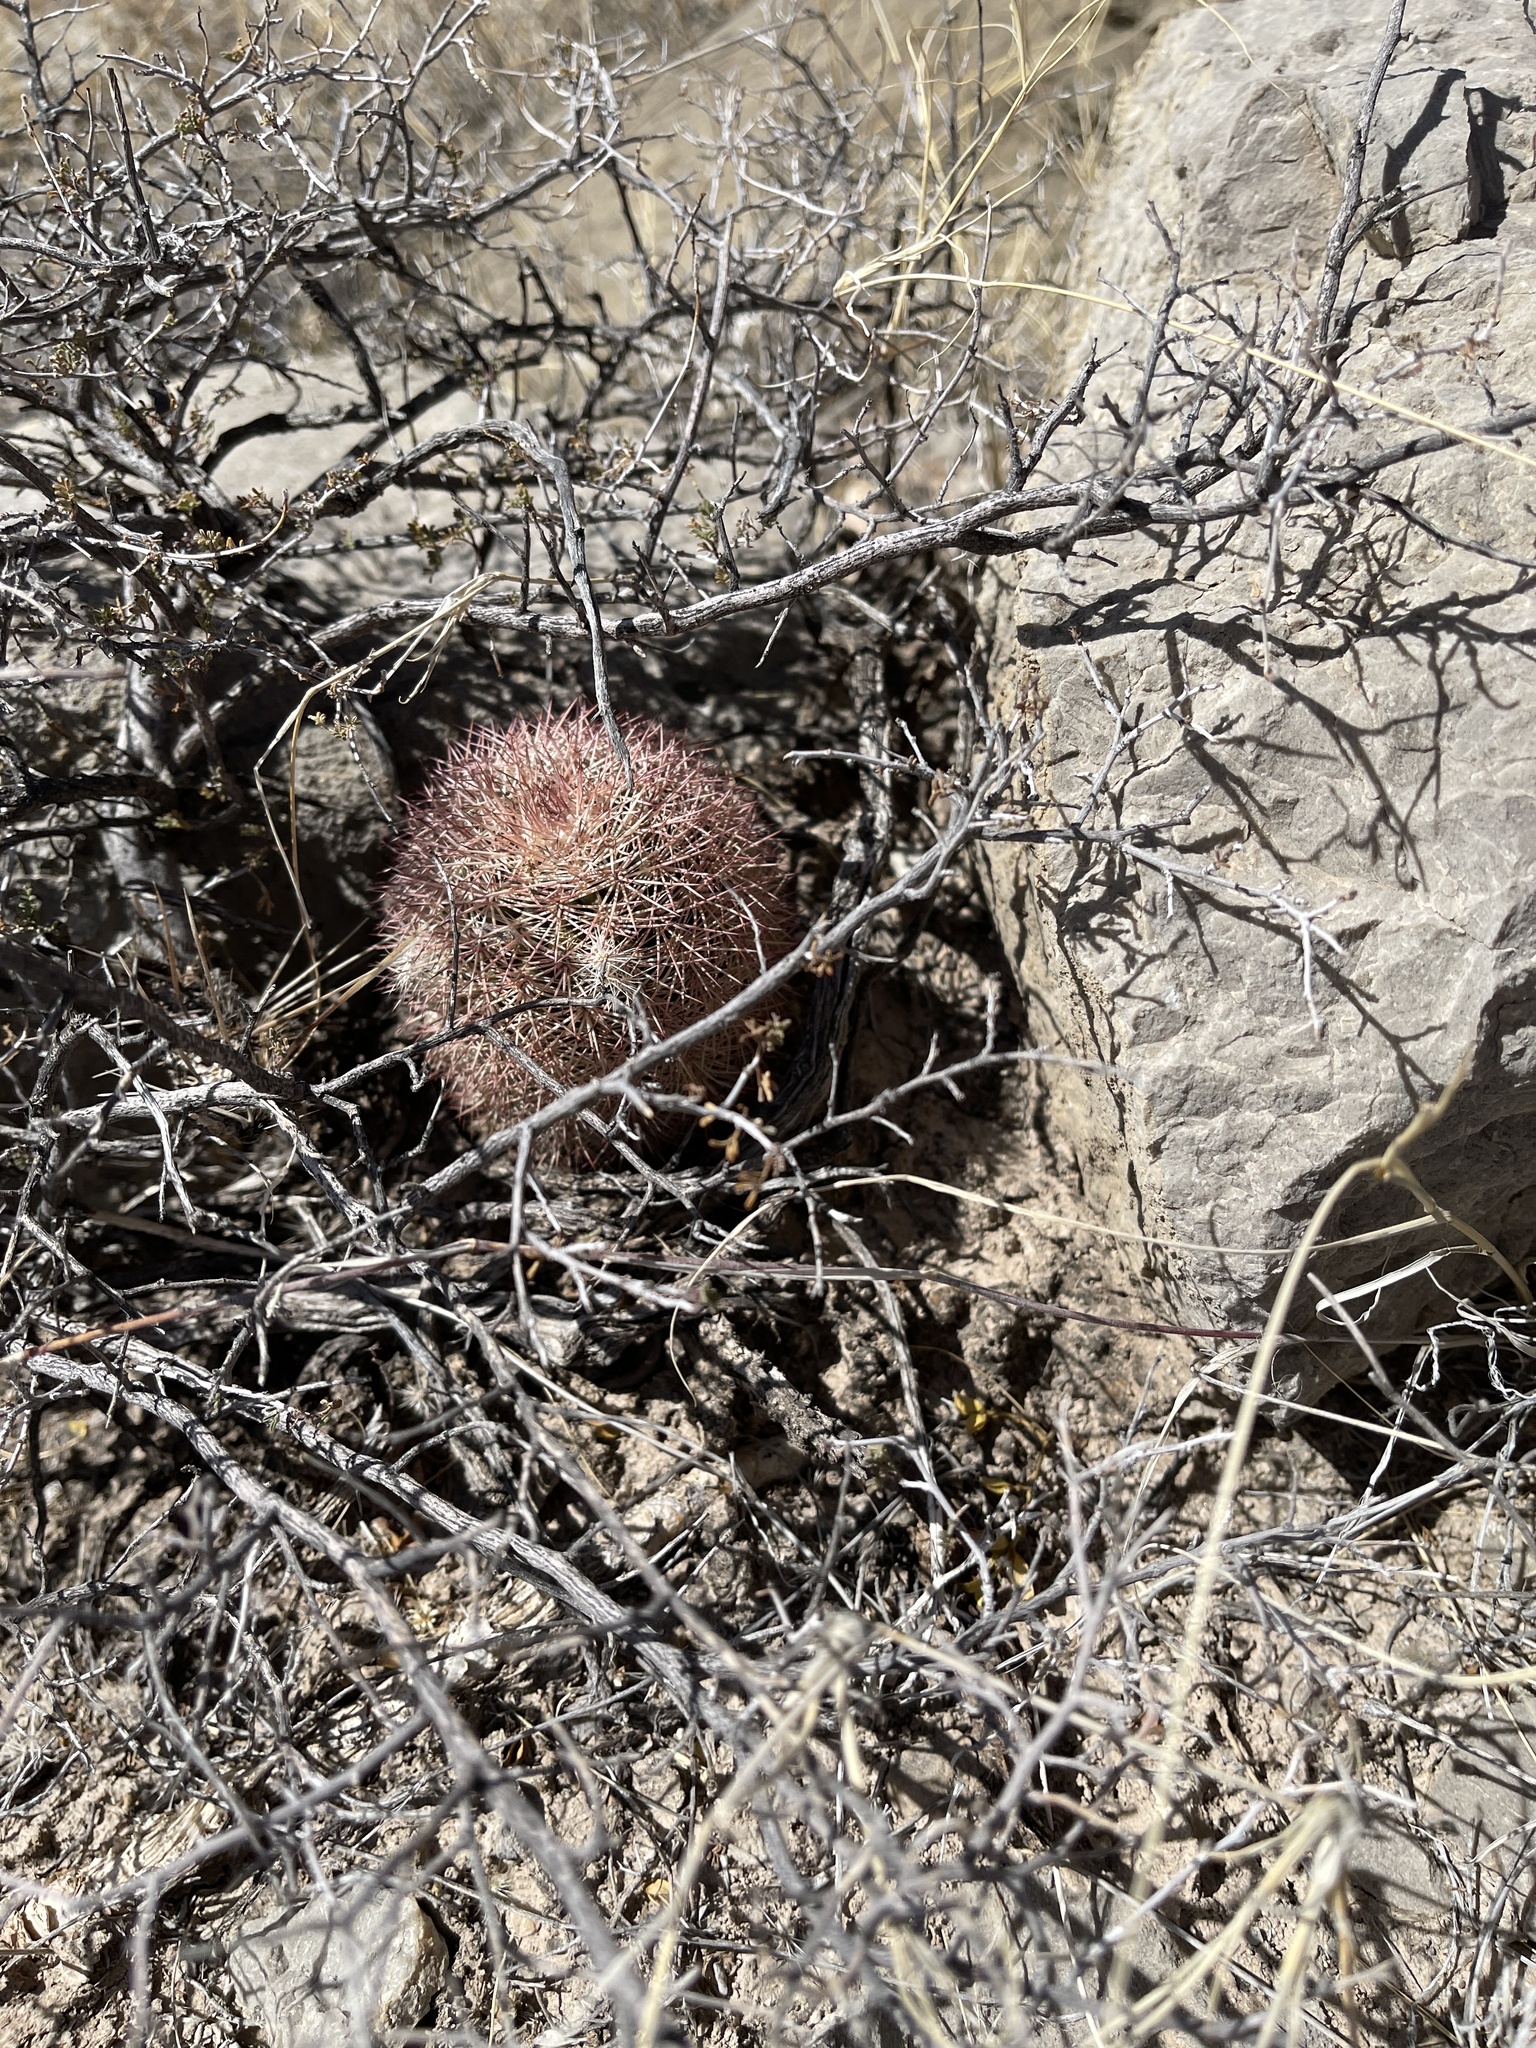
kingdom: Plantae
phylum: Tracheophyta
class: Magnoliopsida
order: Caryophyllales
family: Cactaceae
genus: Echinocereus
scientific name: Echinocereus dasyacanthus
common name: Spiny hedgehog cactus
